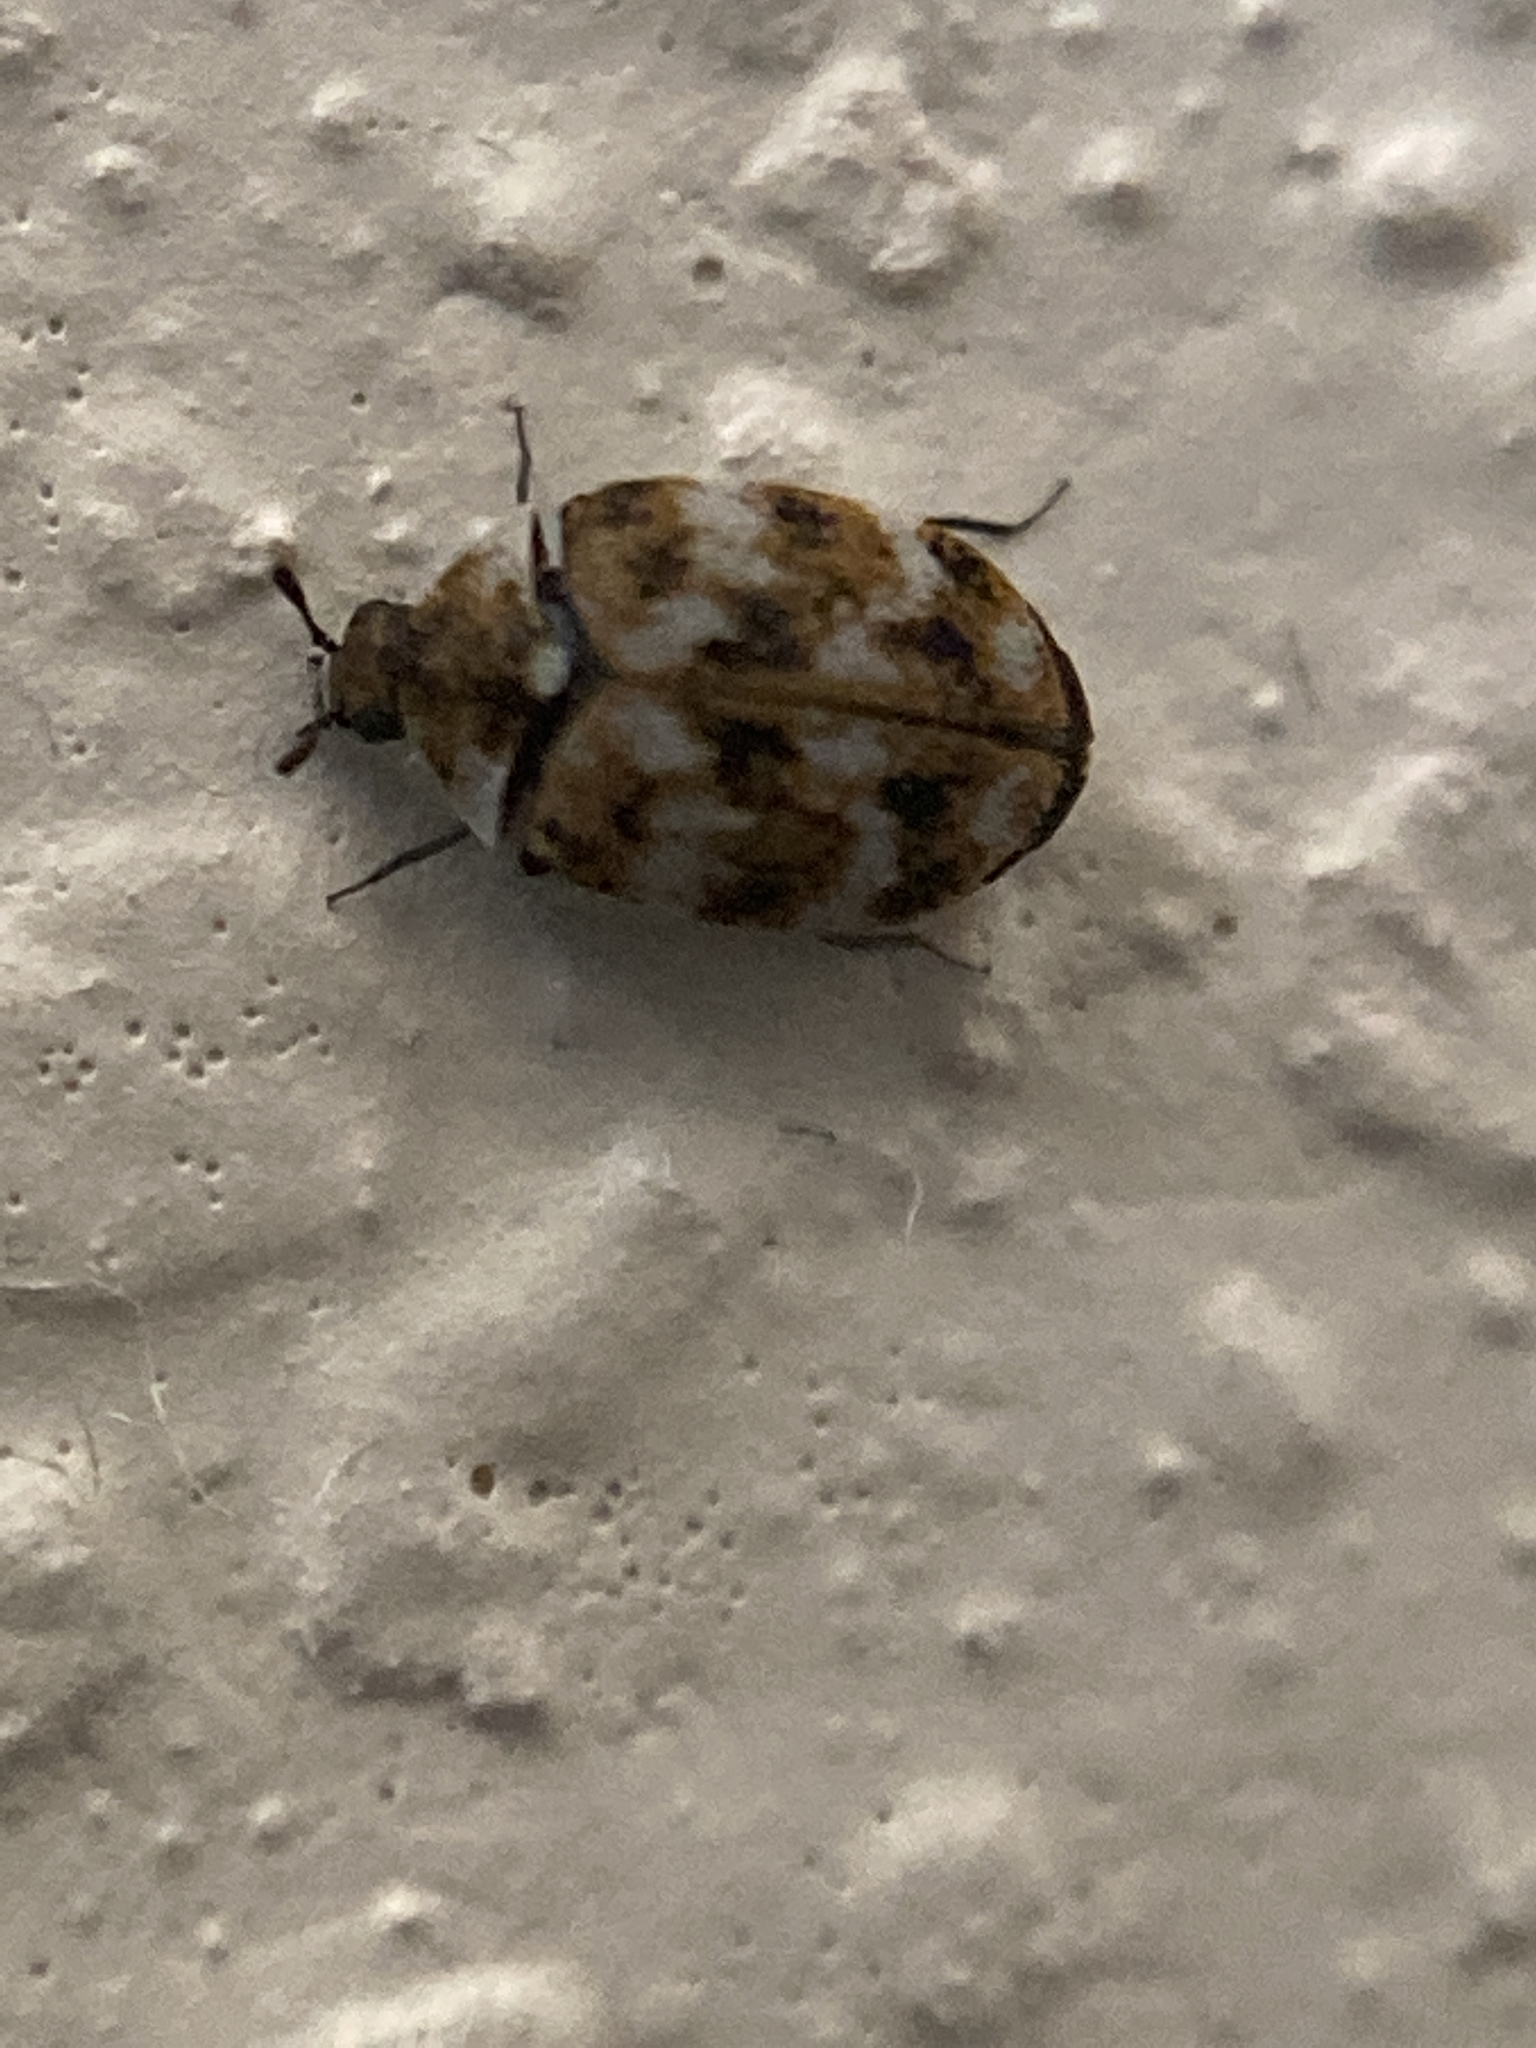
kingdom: Animalia
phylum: Arthropoda
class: Insecta
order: Coleoptera
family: Dermestidae
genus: Anthrenus
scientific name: Anthrenus verbasci
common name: Varied carpet beetle
